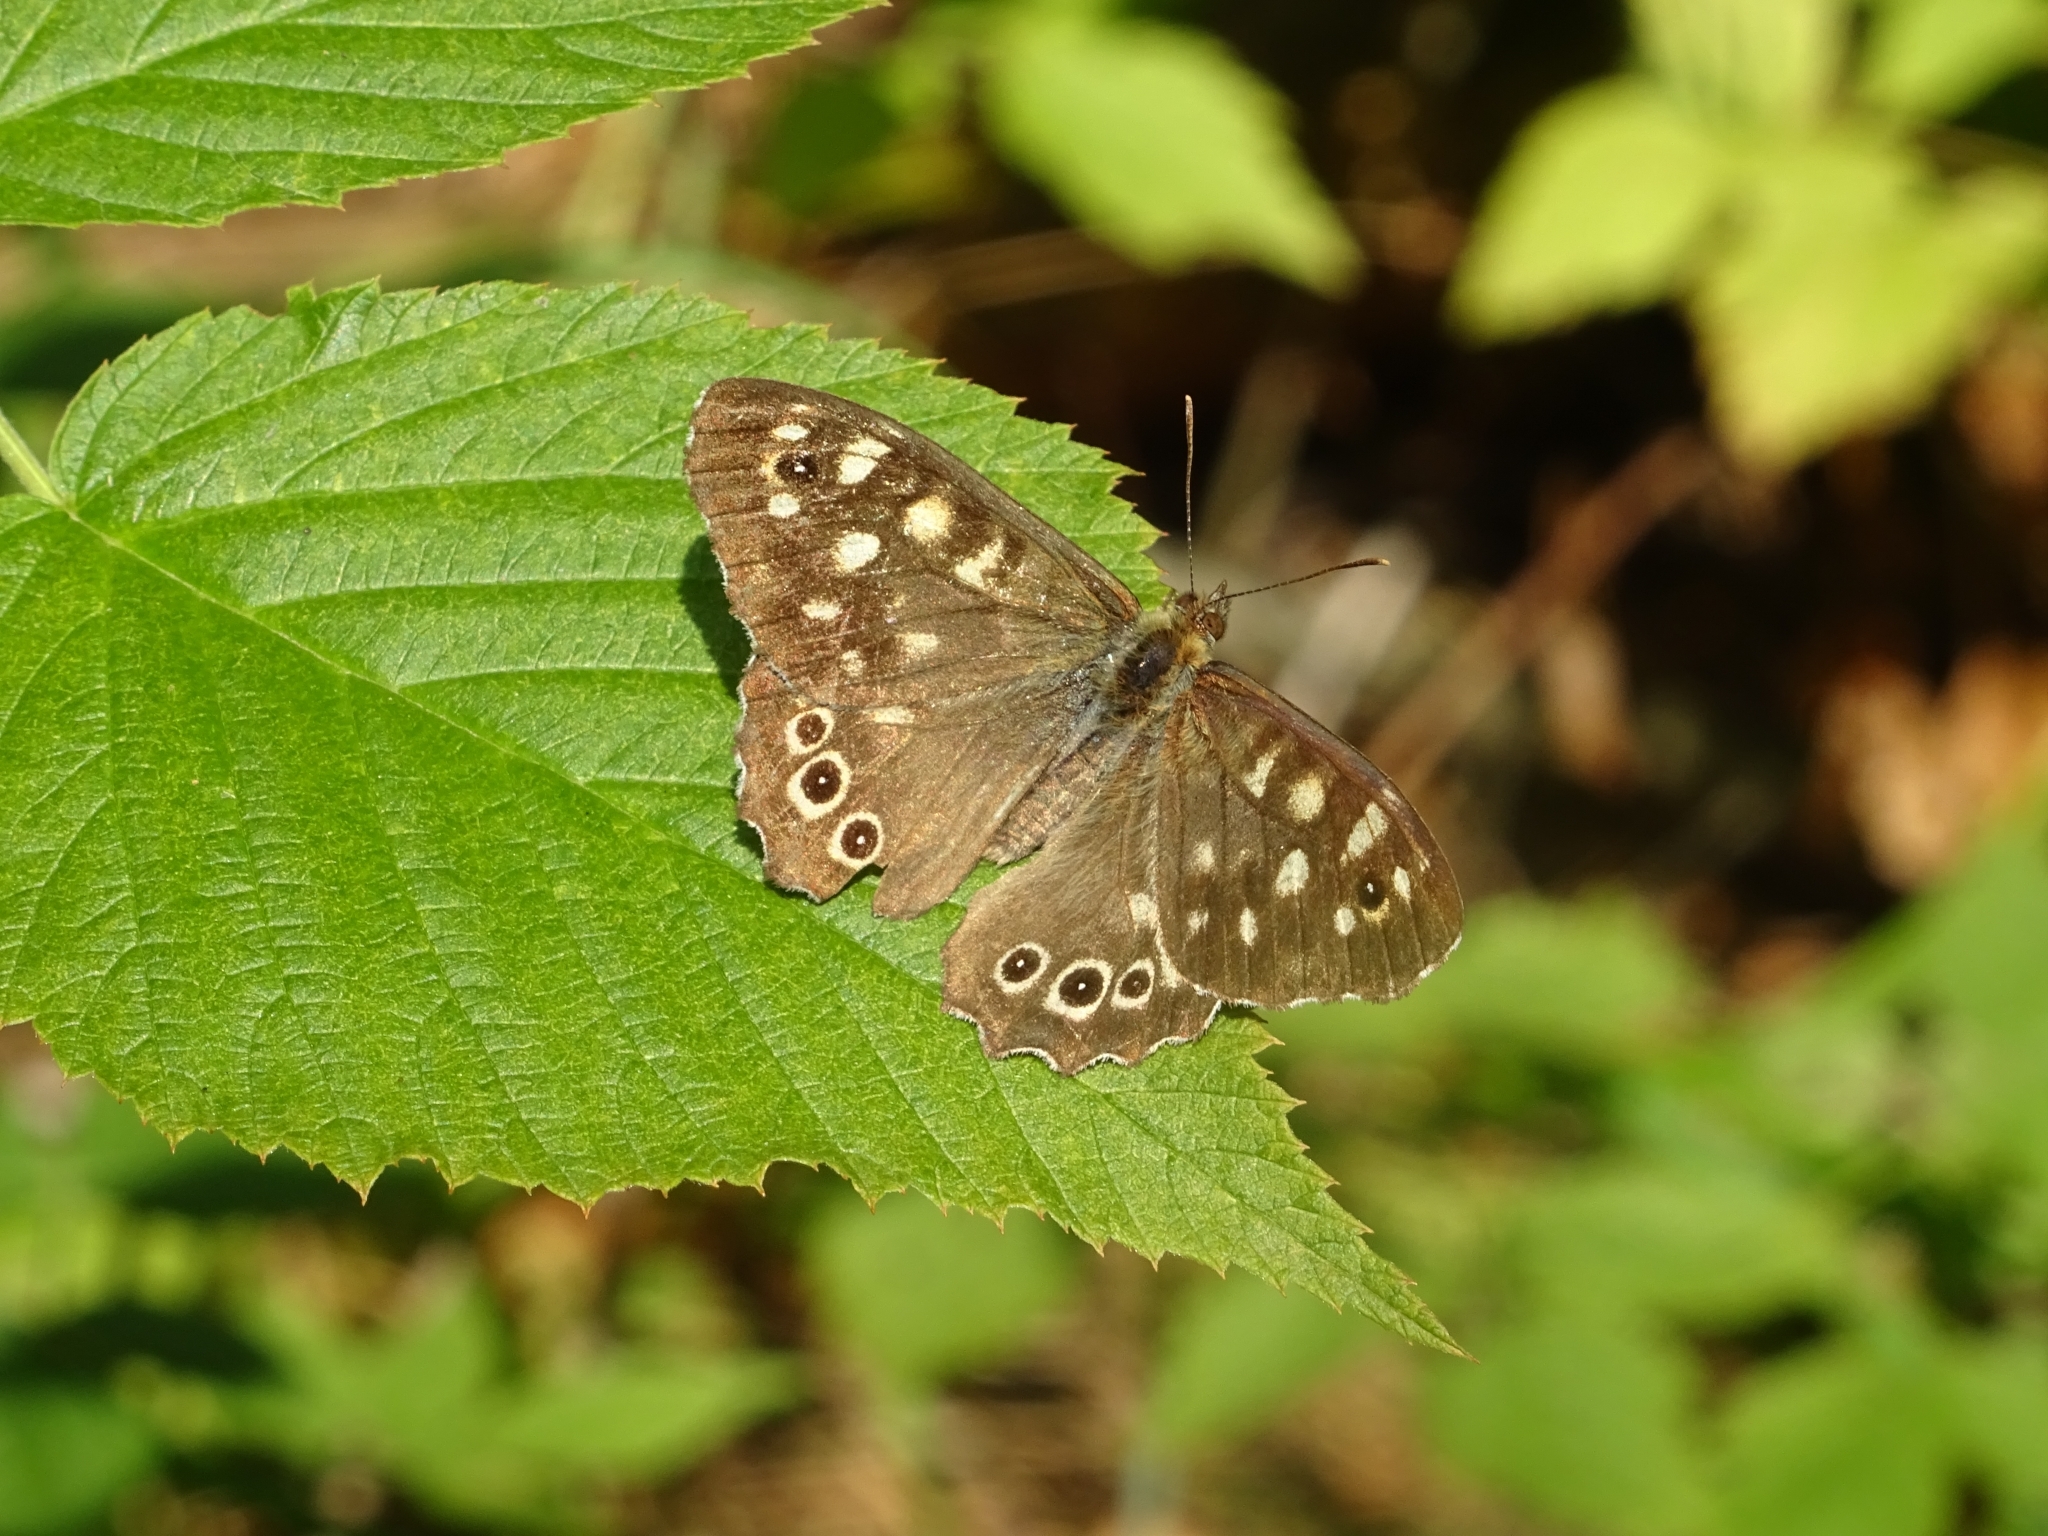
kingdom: Animalia
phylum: Arthropoda
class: Insecta
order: Lepidoptera
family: Nymphalidae
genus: Pararge
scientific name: Pararge aegeria
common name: Speckled wood
